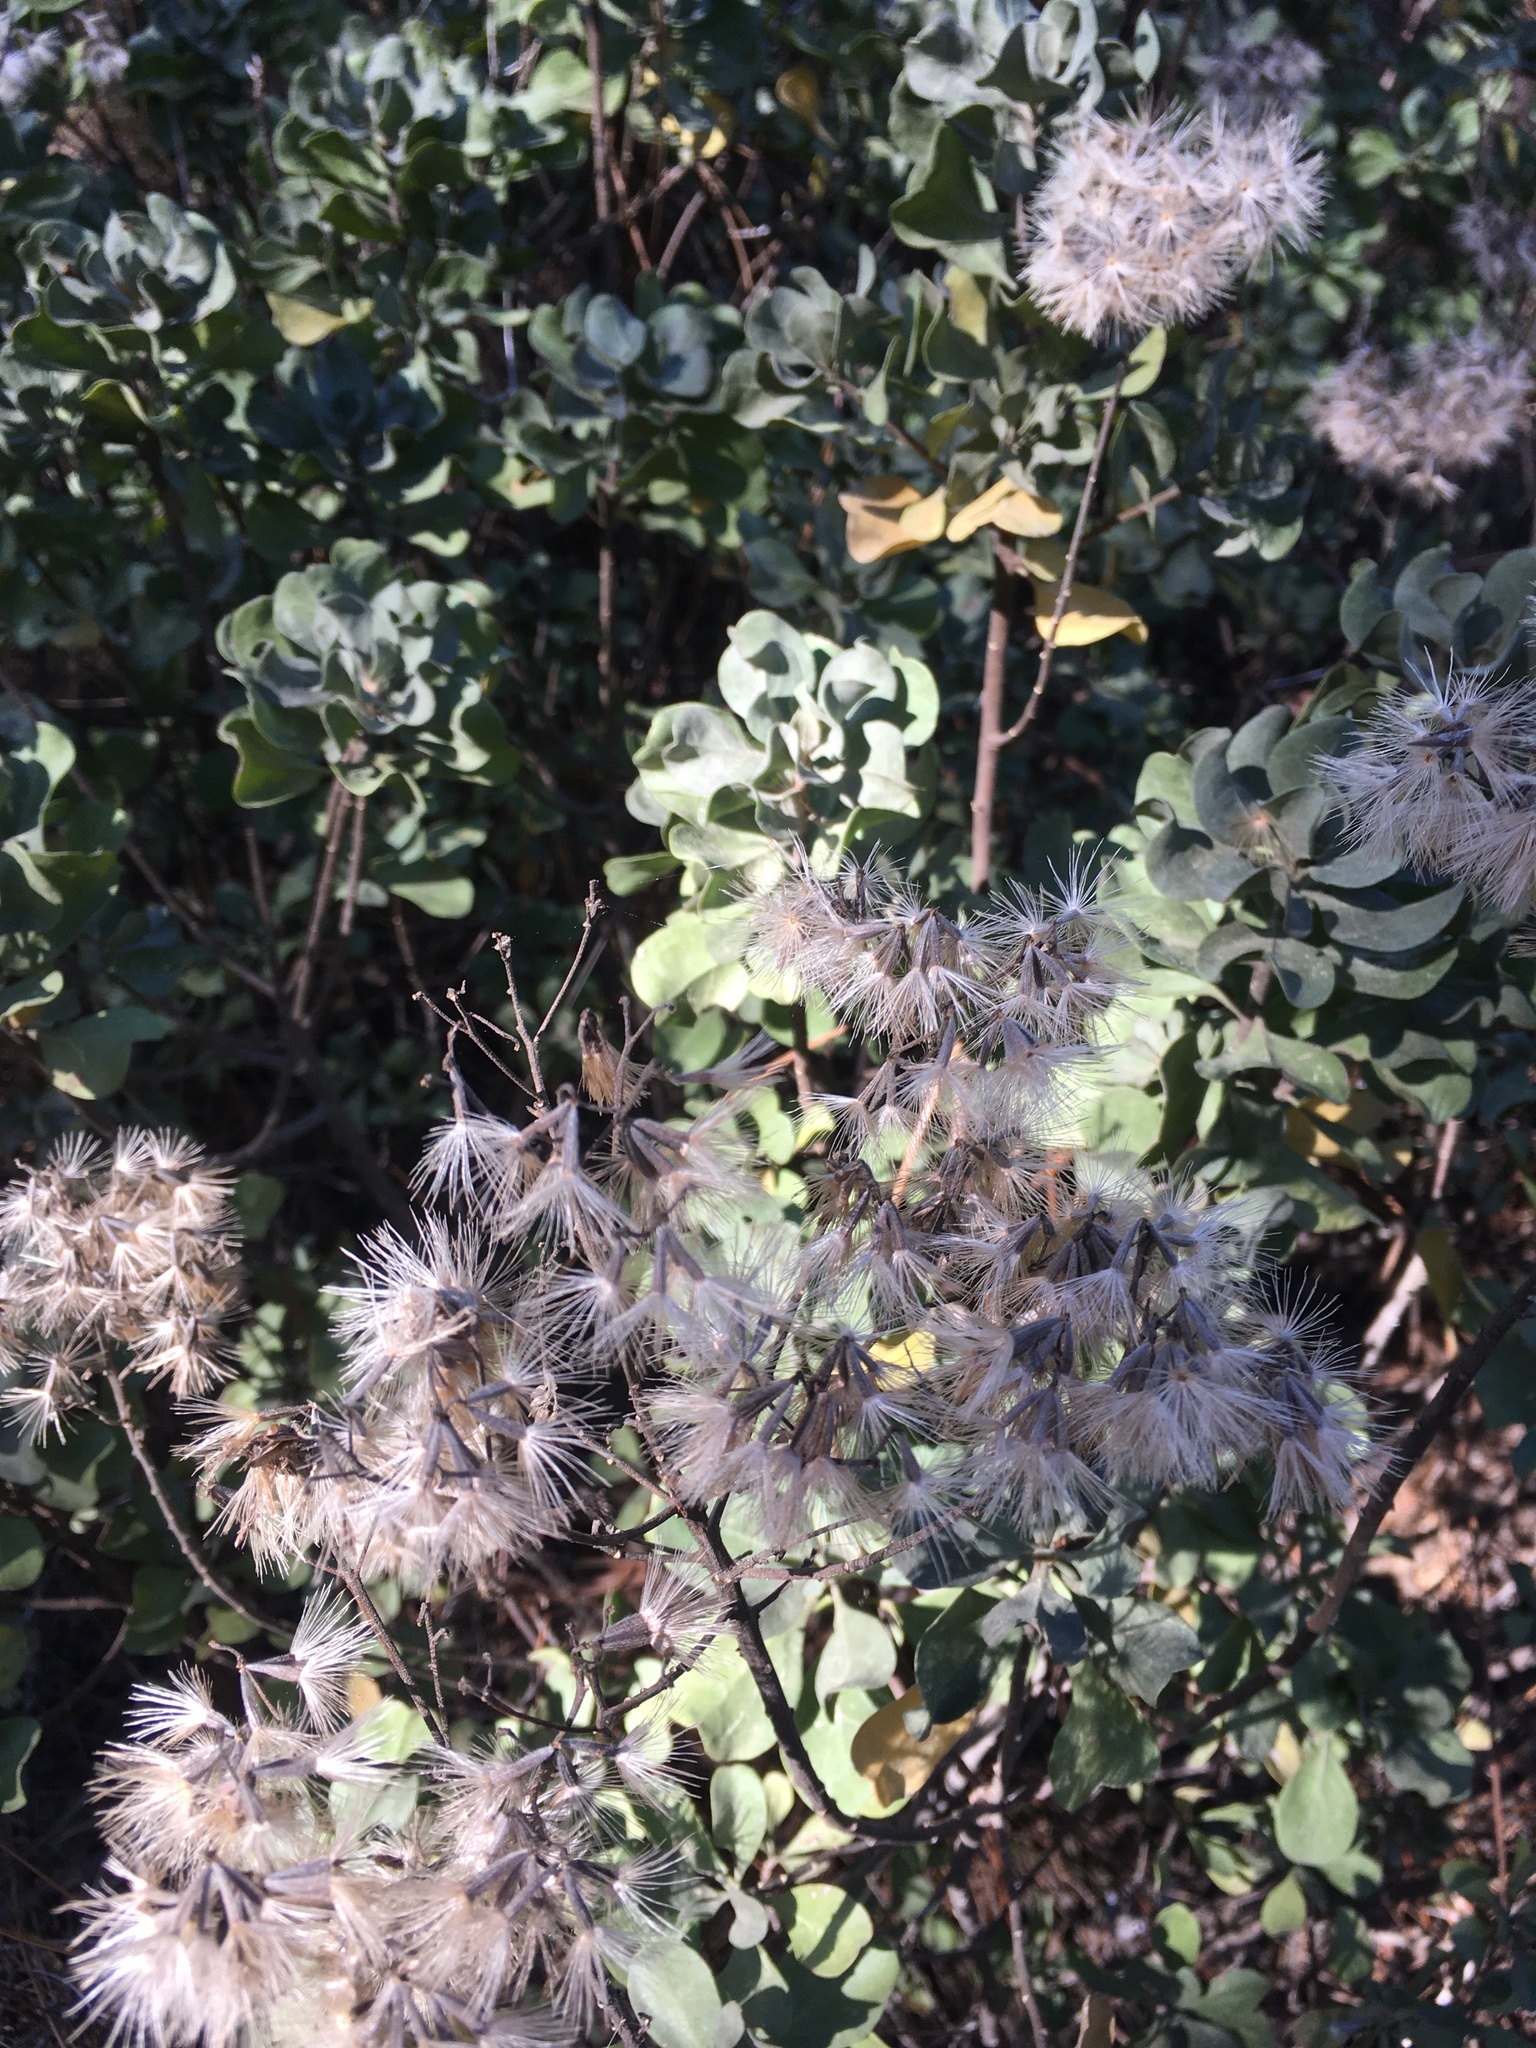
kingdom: Plantae
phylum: Tracheophyta
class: Magnoliopsida
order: Asterales
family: Asteraceae
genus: Garberia
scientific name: Garberia heterophylla
